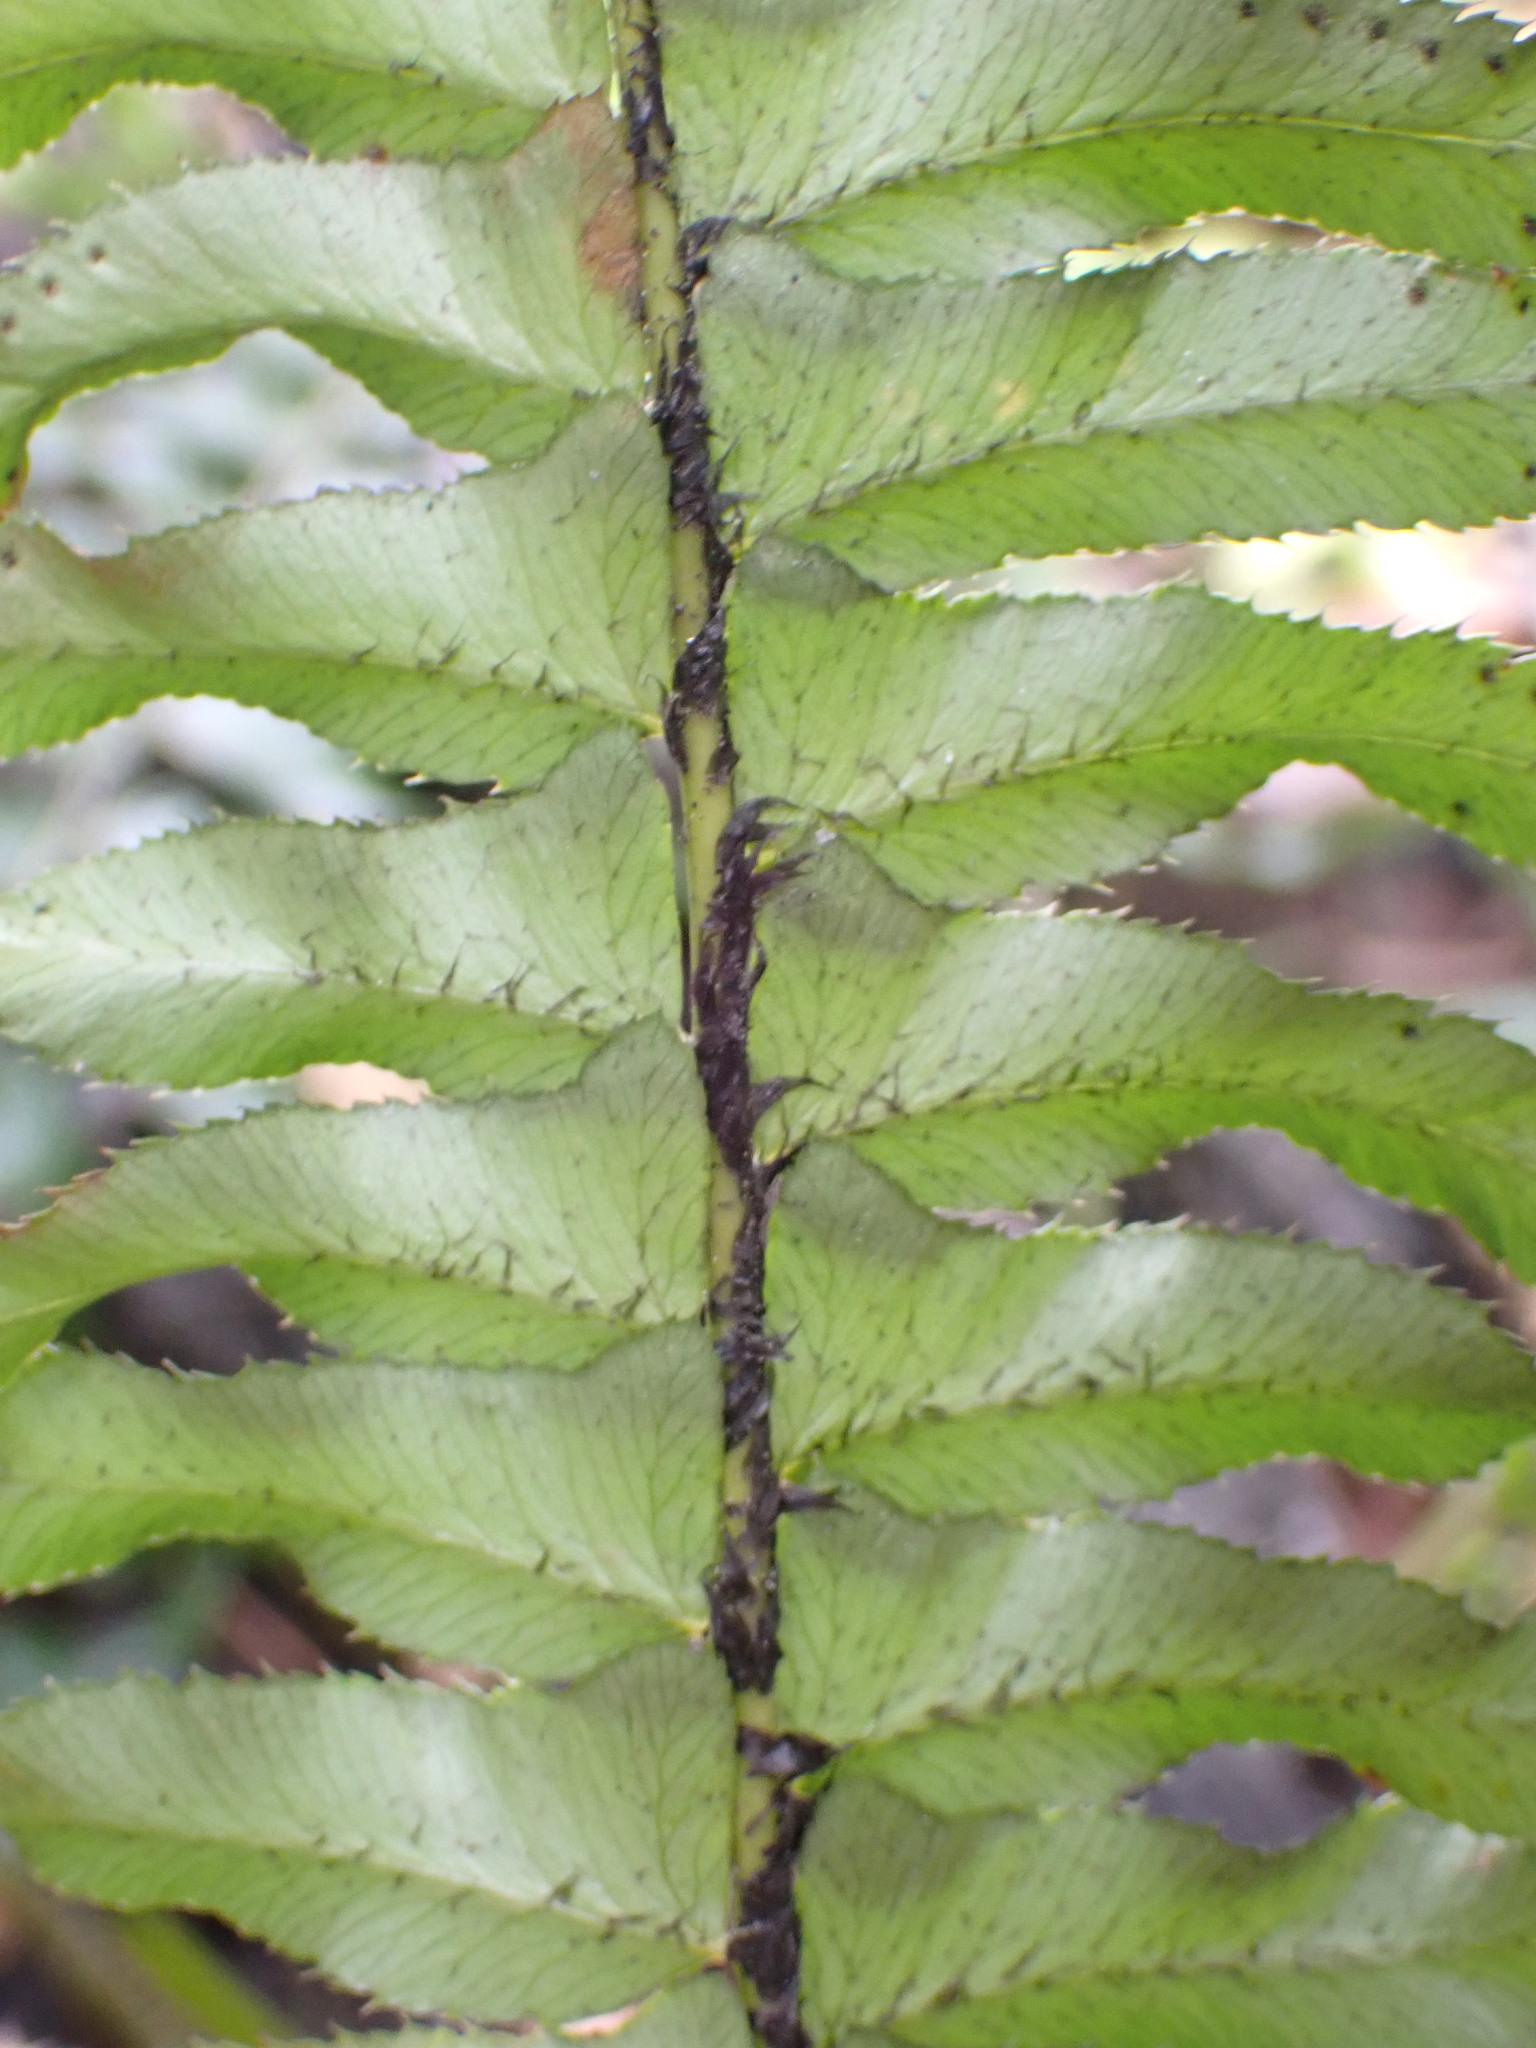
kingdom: Plantae
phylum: Tracheophyta
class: Polypodiopsida
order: Polypodiales
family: Dryopteridaceae
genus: Polystichum
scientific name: Polystichum munitum
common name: Western sword-fern
